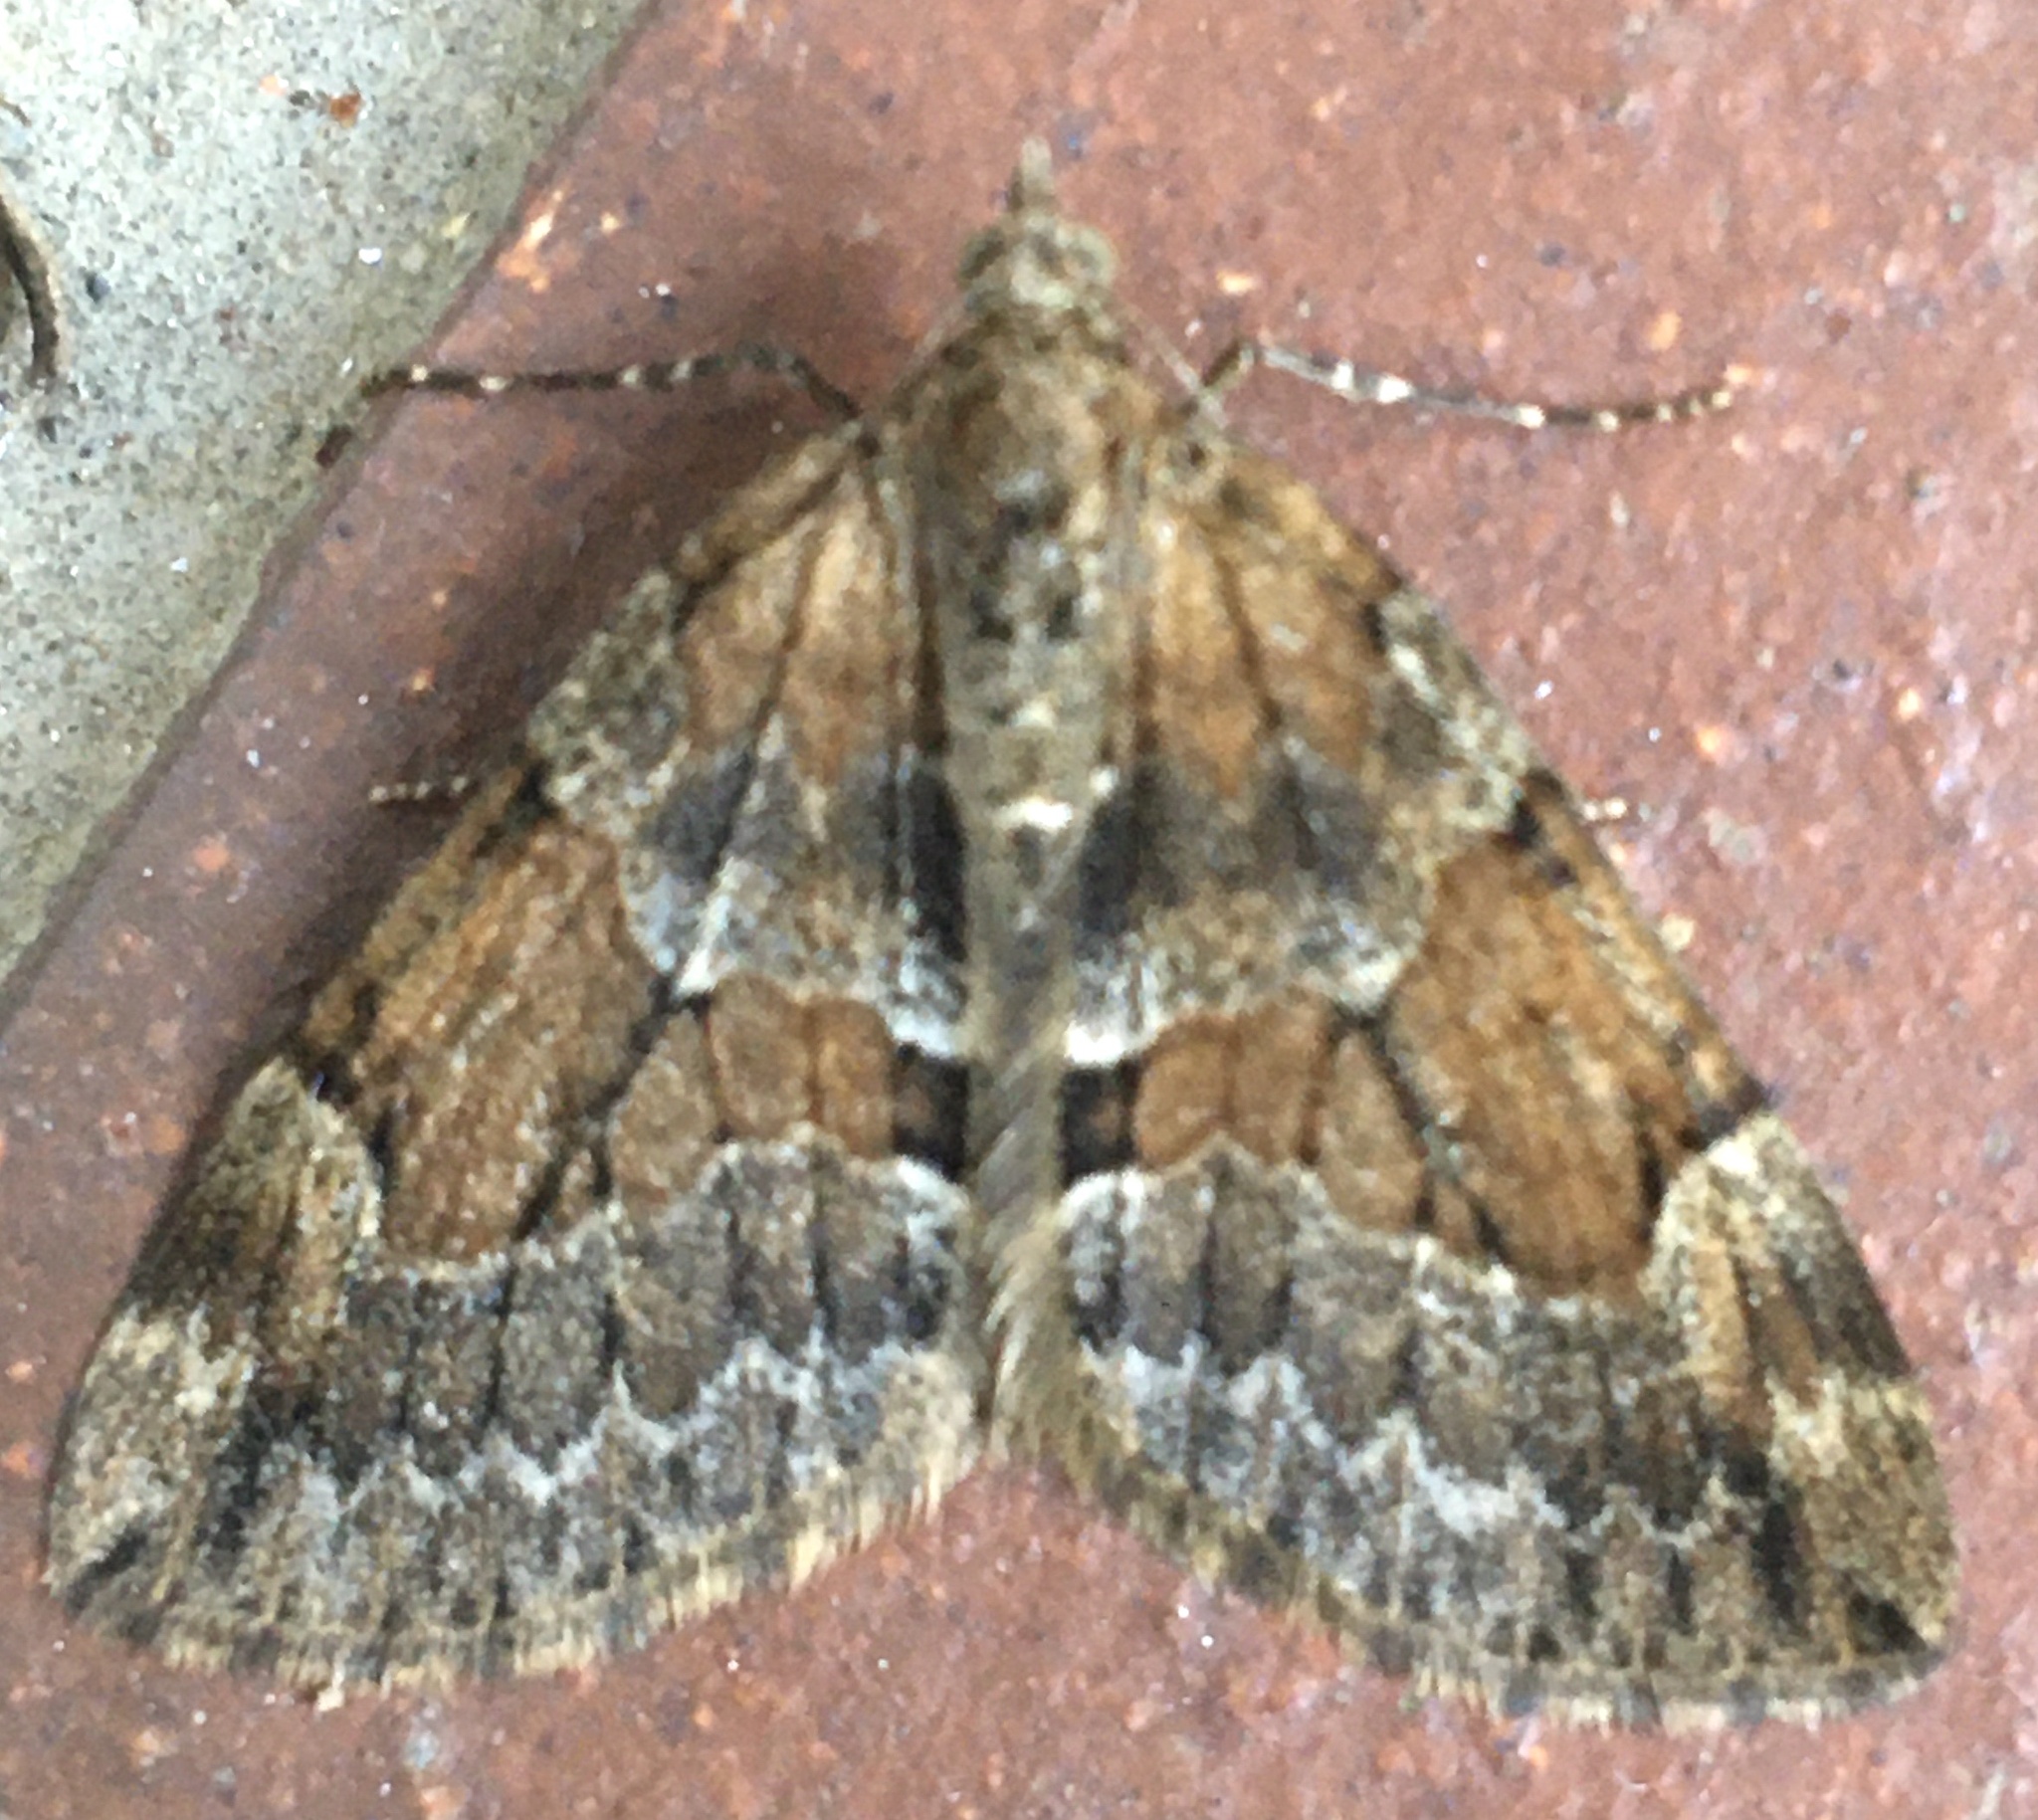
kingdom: Animalia
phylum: Arthropoda
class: Insecta
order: Lepidoptera
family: Geometridae
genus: Thera
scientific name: Thera obeliscata
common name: Grey pine carpet
